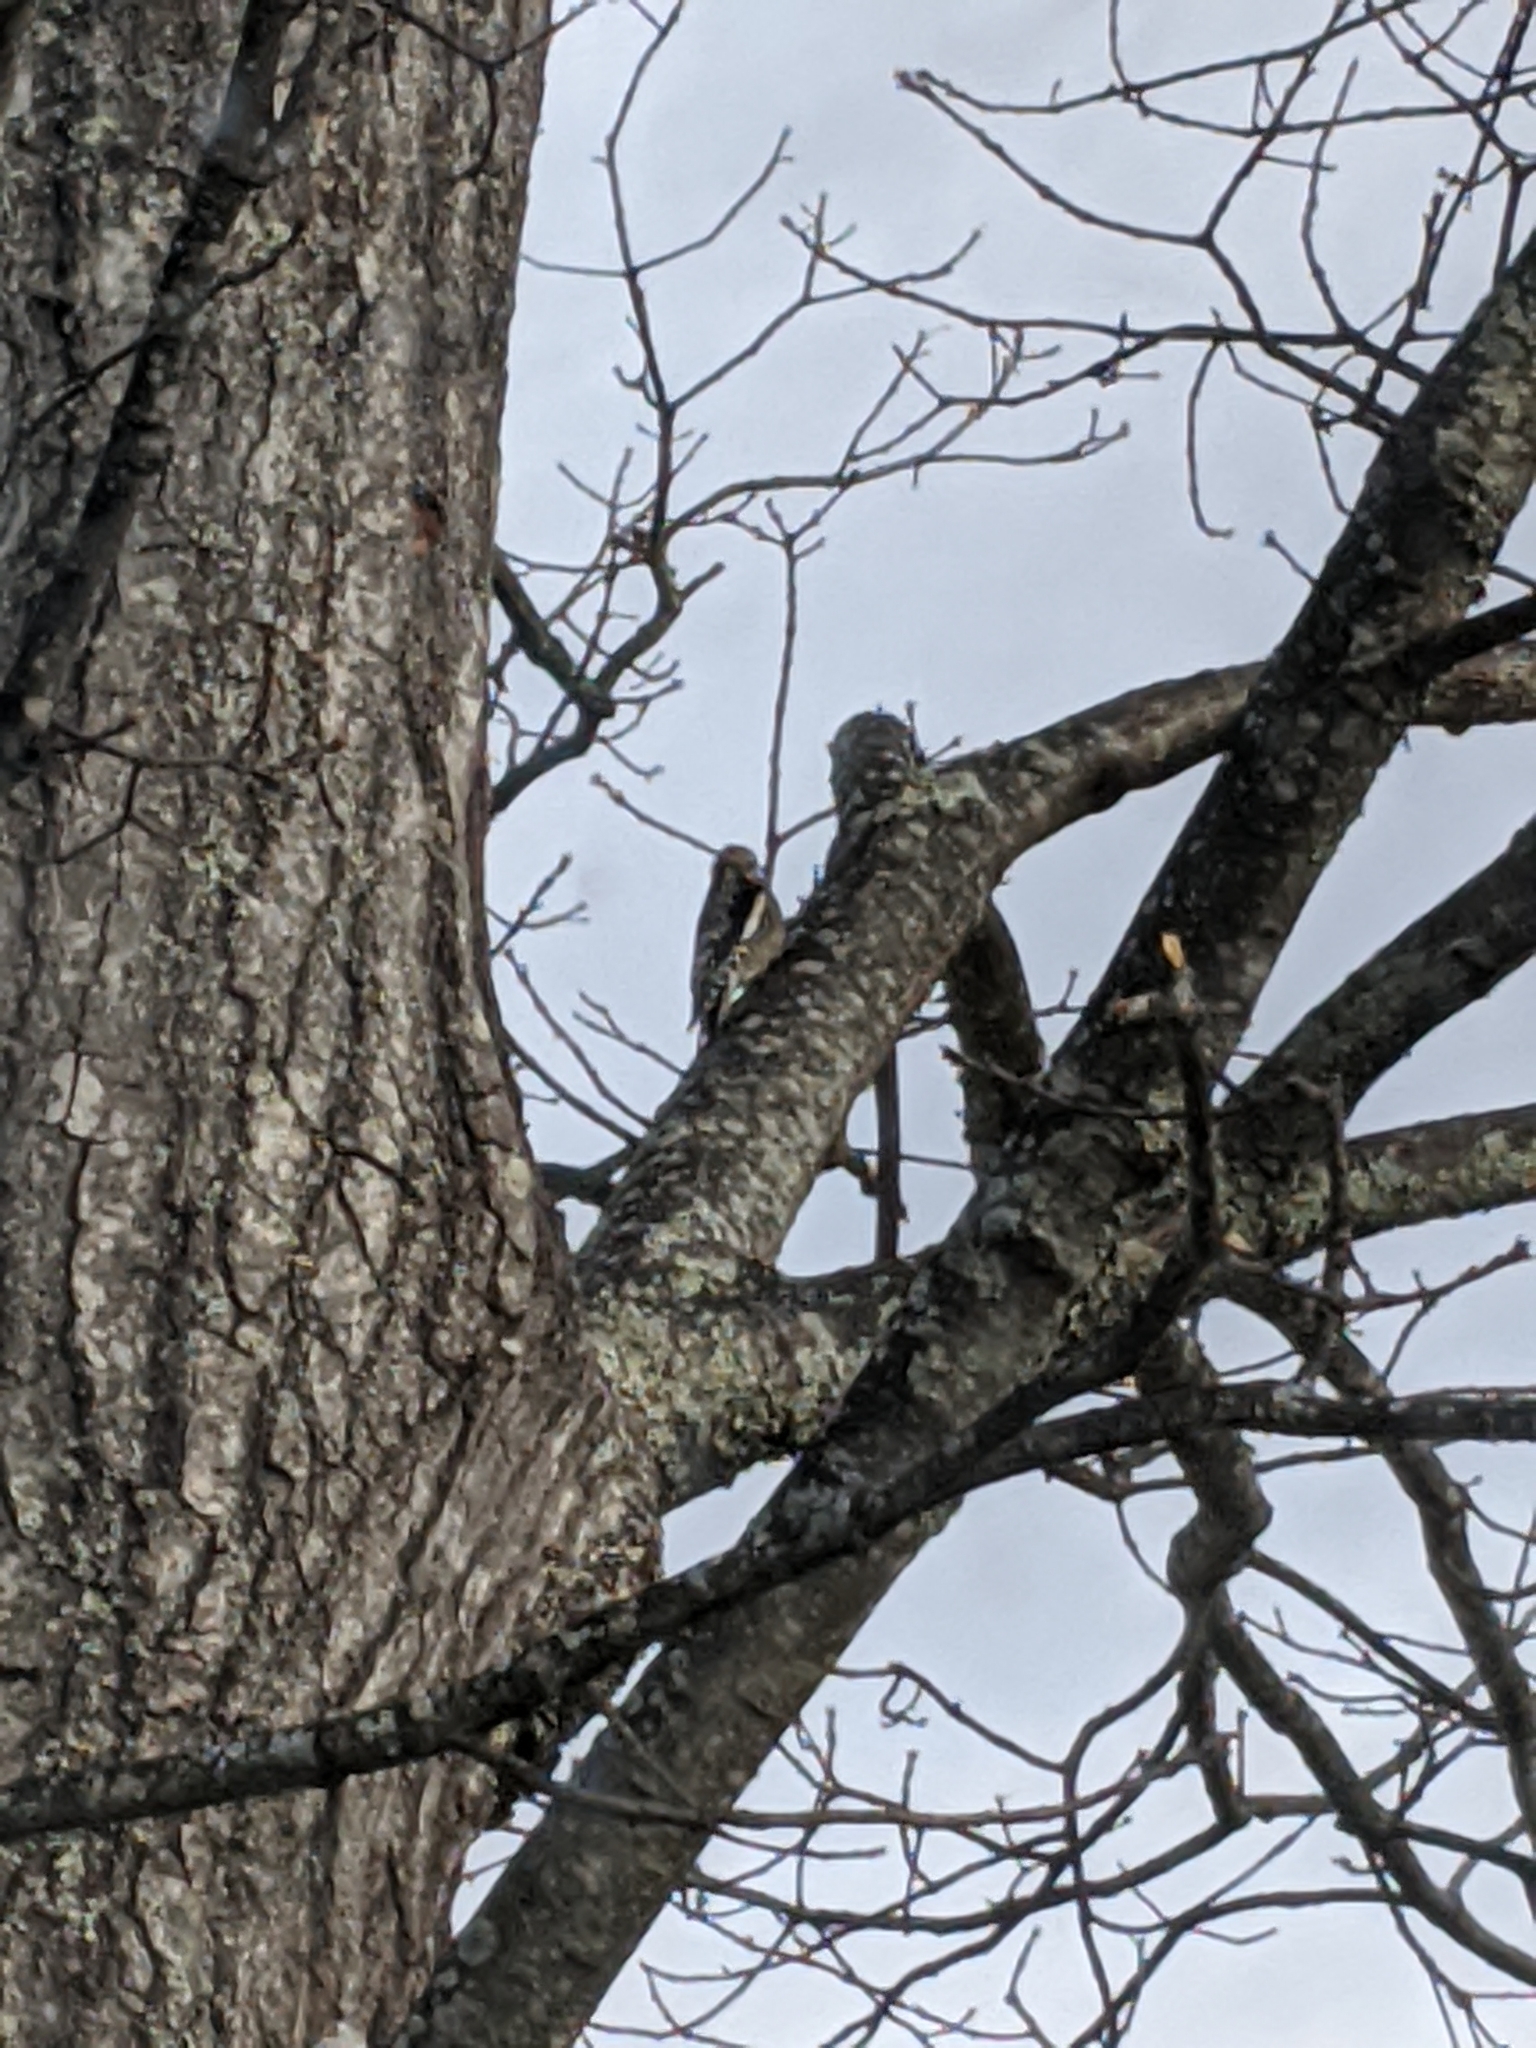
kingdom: Animalia
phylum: Chordata
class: Aves
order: Piciformes
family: Picidae
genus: Sphyrapicus
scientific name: Sphyrapicus varius
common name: Yellow-bellied sapsucker
